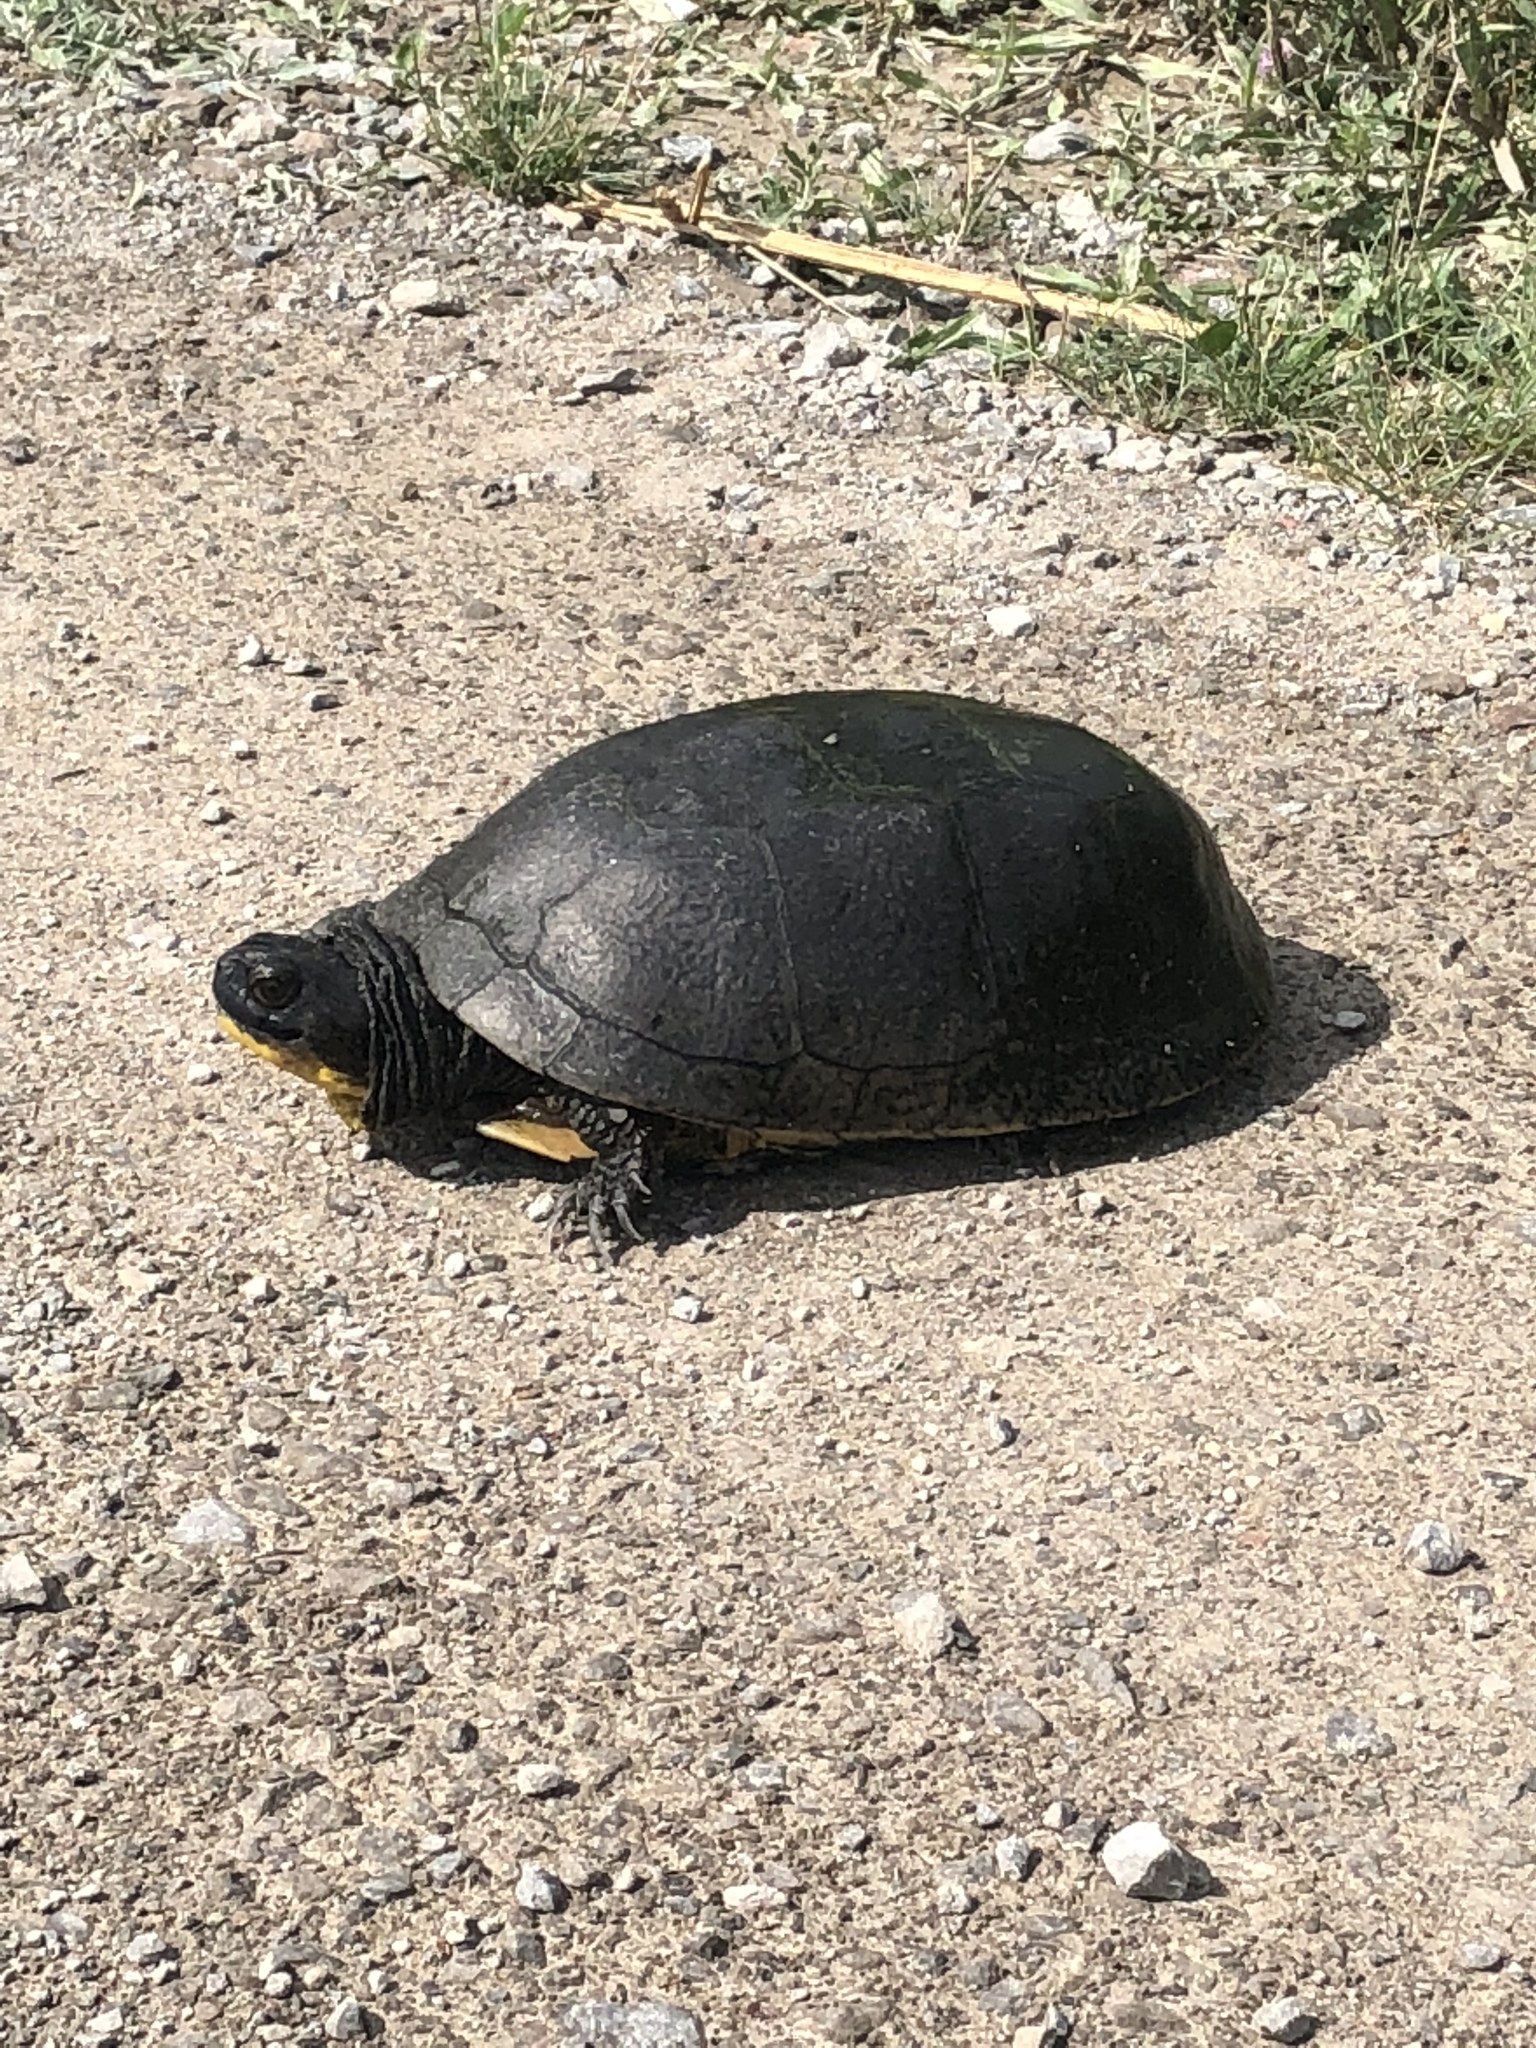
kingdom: Animalia
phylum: Chordata
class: Testudines
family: Emydidae
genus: Emys
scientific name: Emys blandingii
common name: Blanding's turtle
